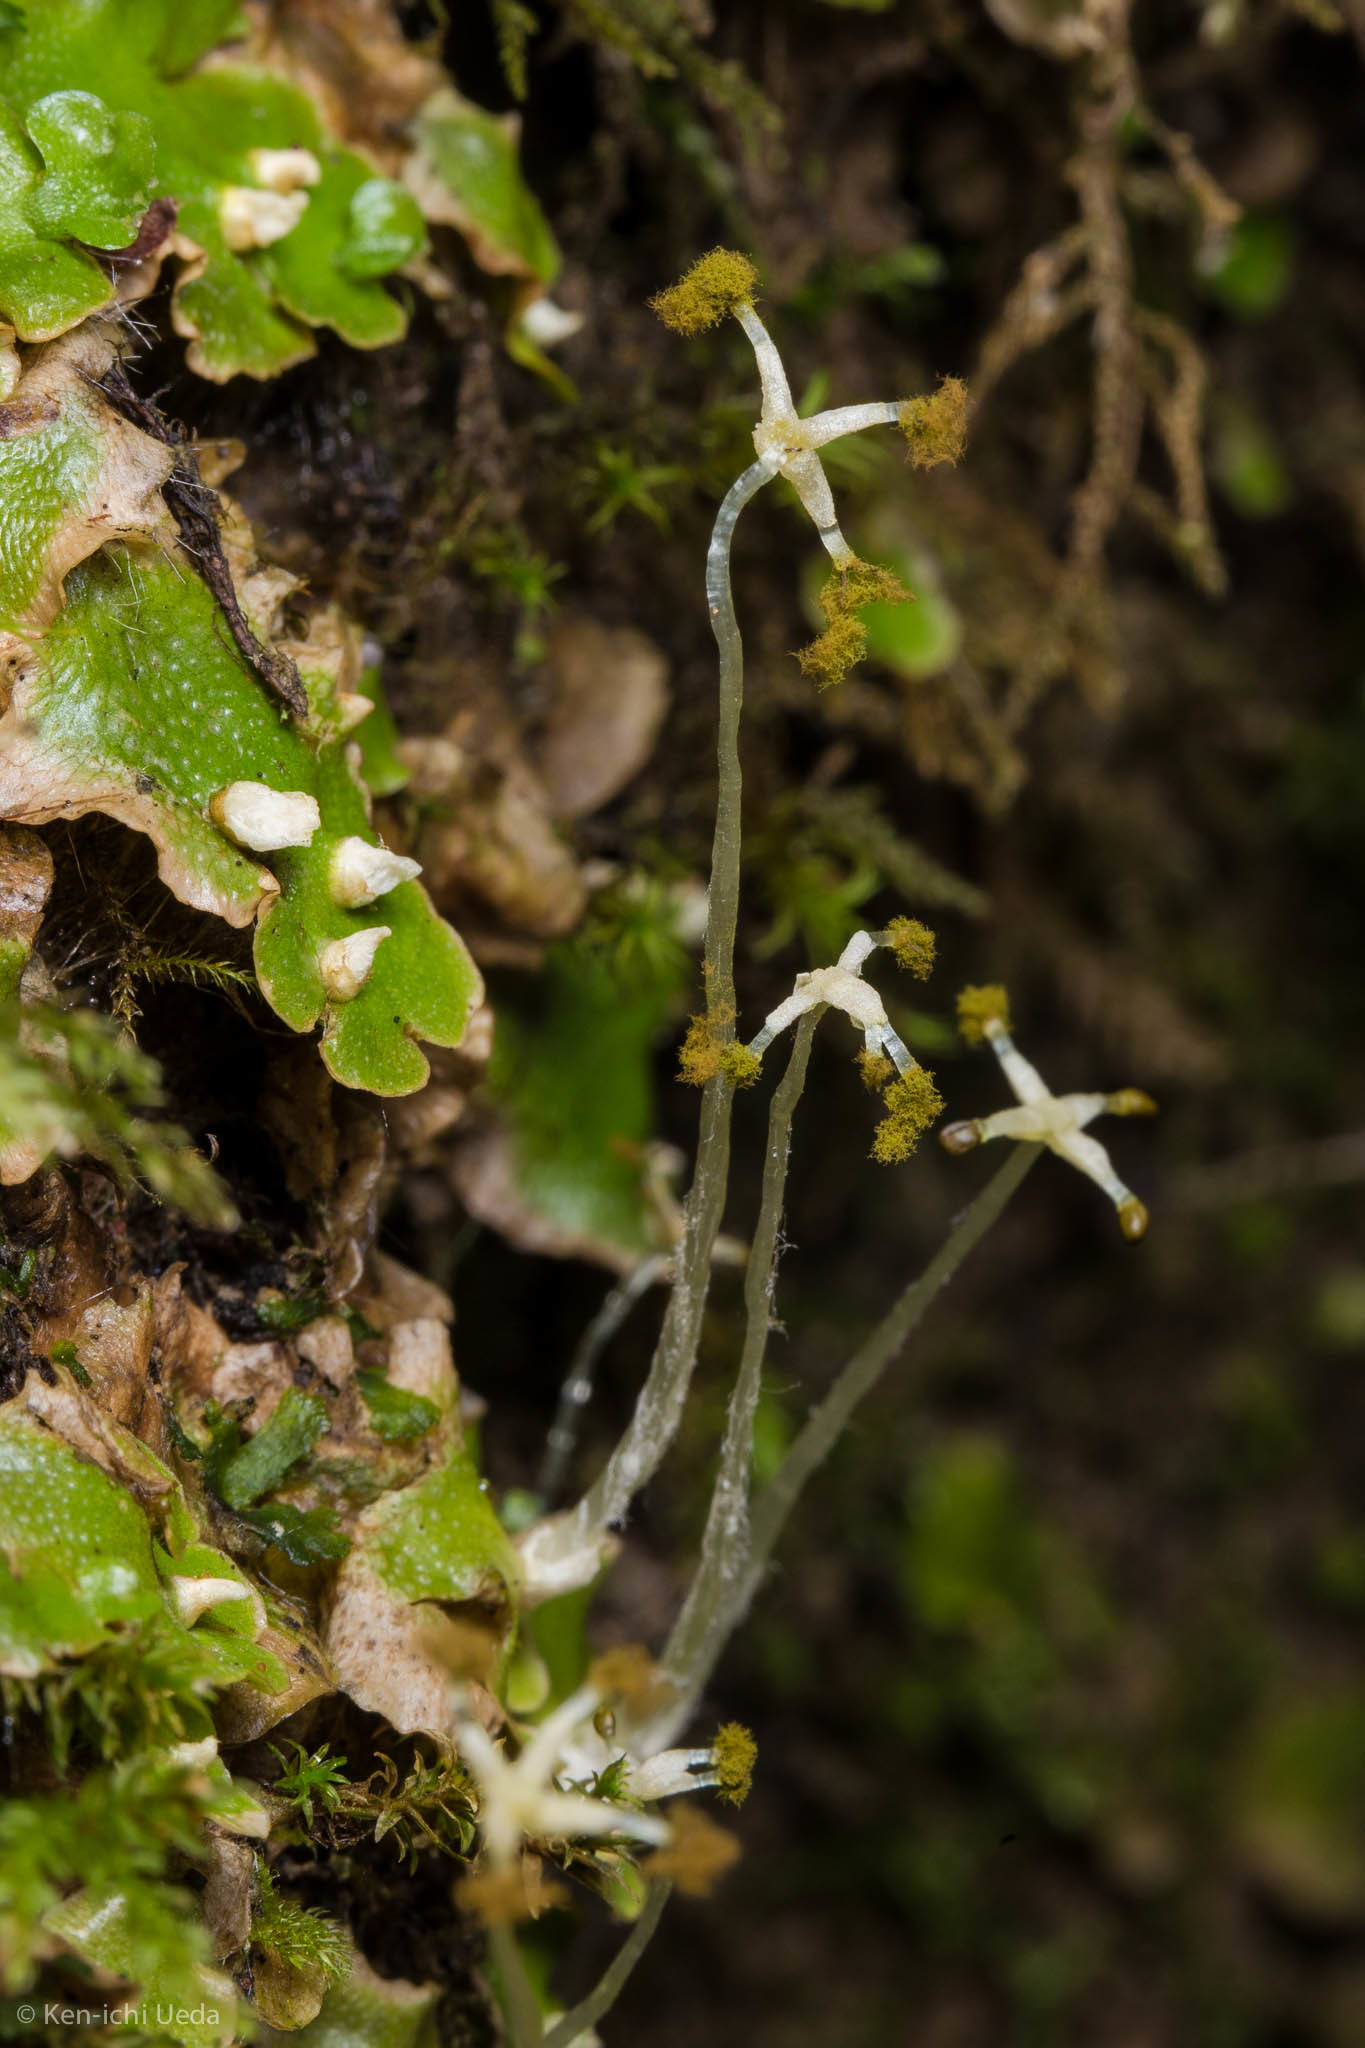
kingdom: Plantae
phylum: Marchantiophyta
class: Marchantiopsida
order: Lunulariales
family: Lunulariaceae
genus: Lunularia
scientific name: Lunularia cruciata
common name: Crescent-cup liverwort
